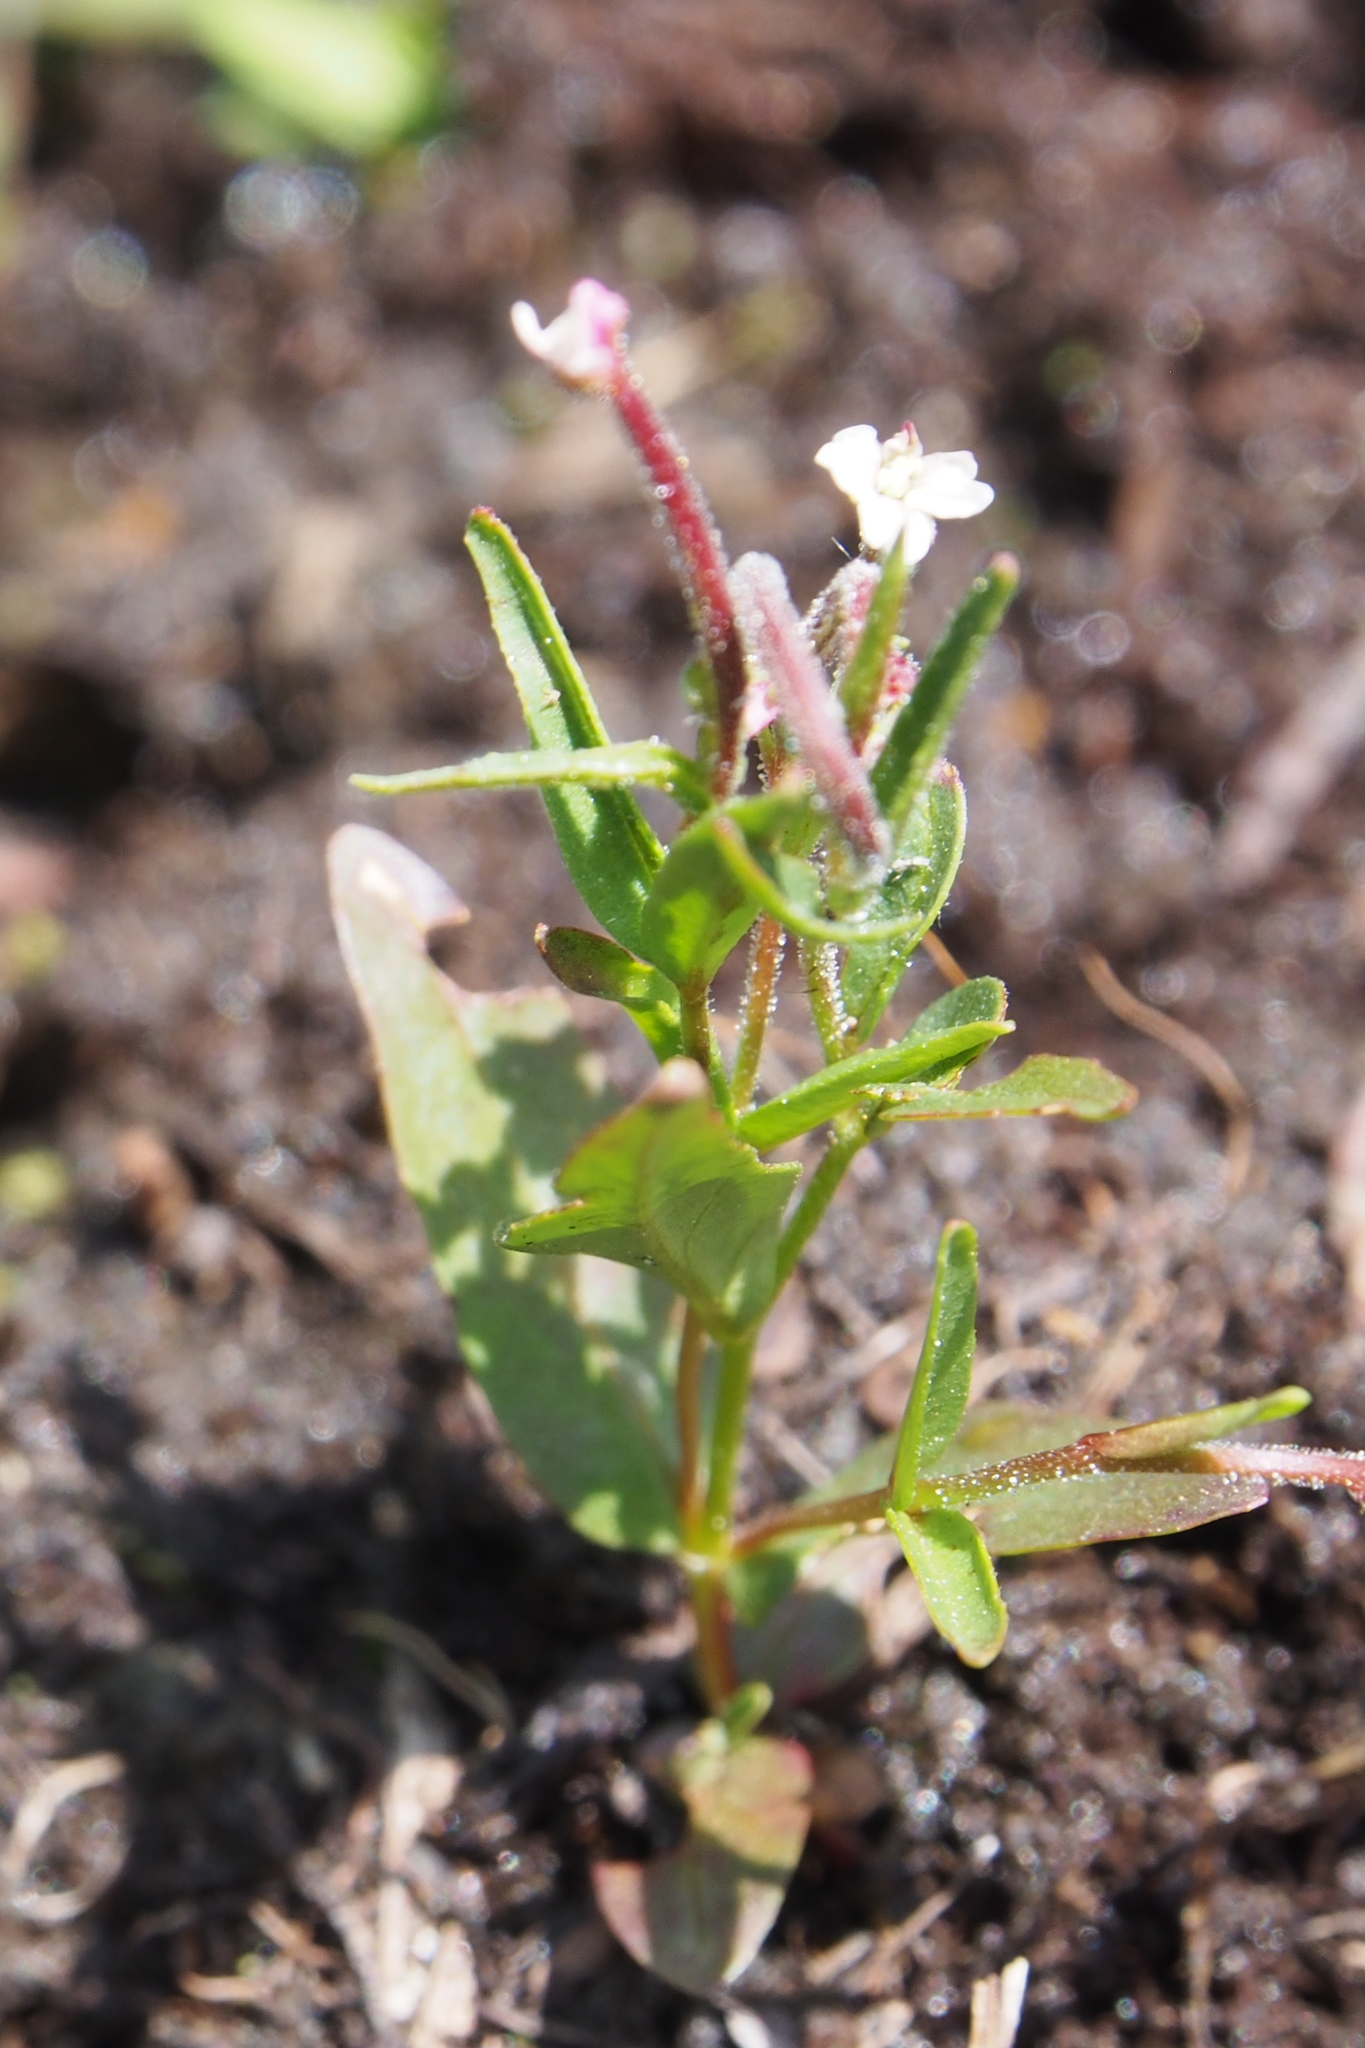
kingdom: Plantae
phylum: Tracheophyta
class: Magnoliopsida
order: Myrtales
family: Onagraceae
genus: Epilobium
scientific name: Epilobium ciliatum
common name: American willowherb
